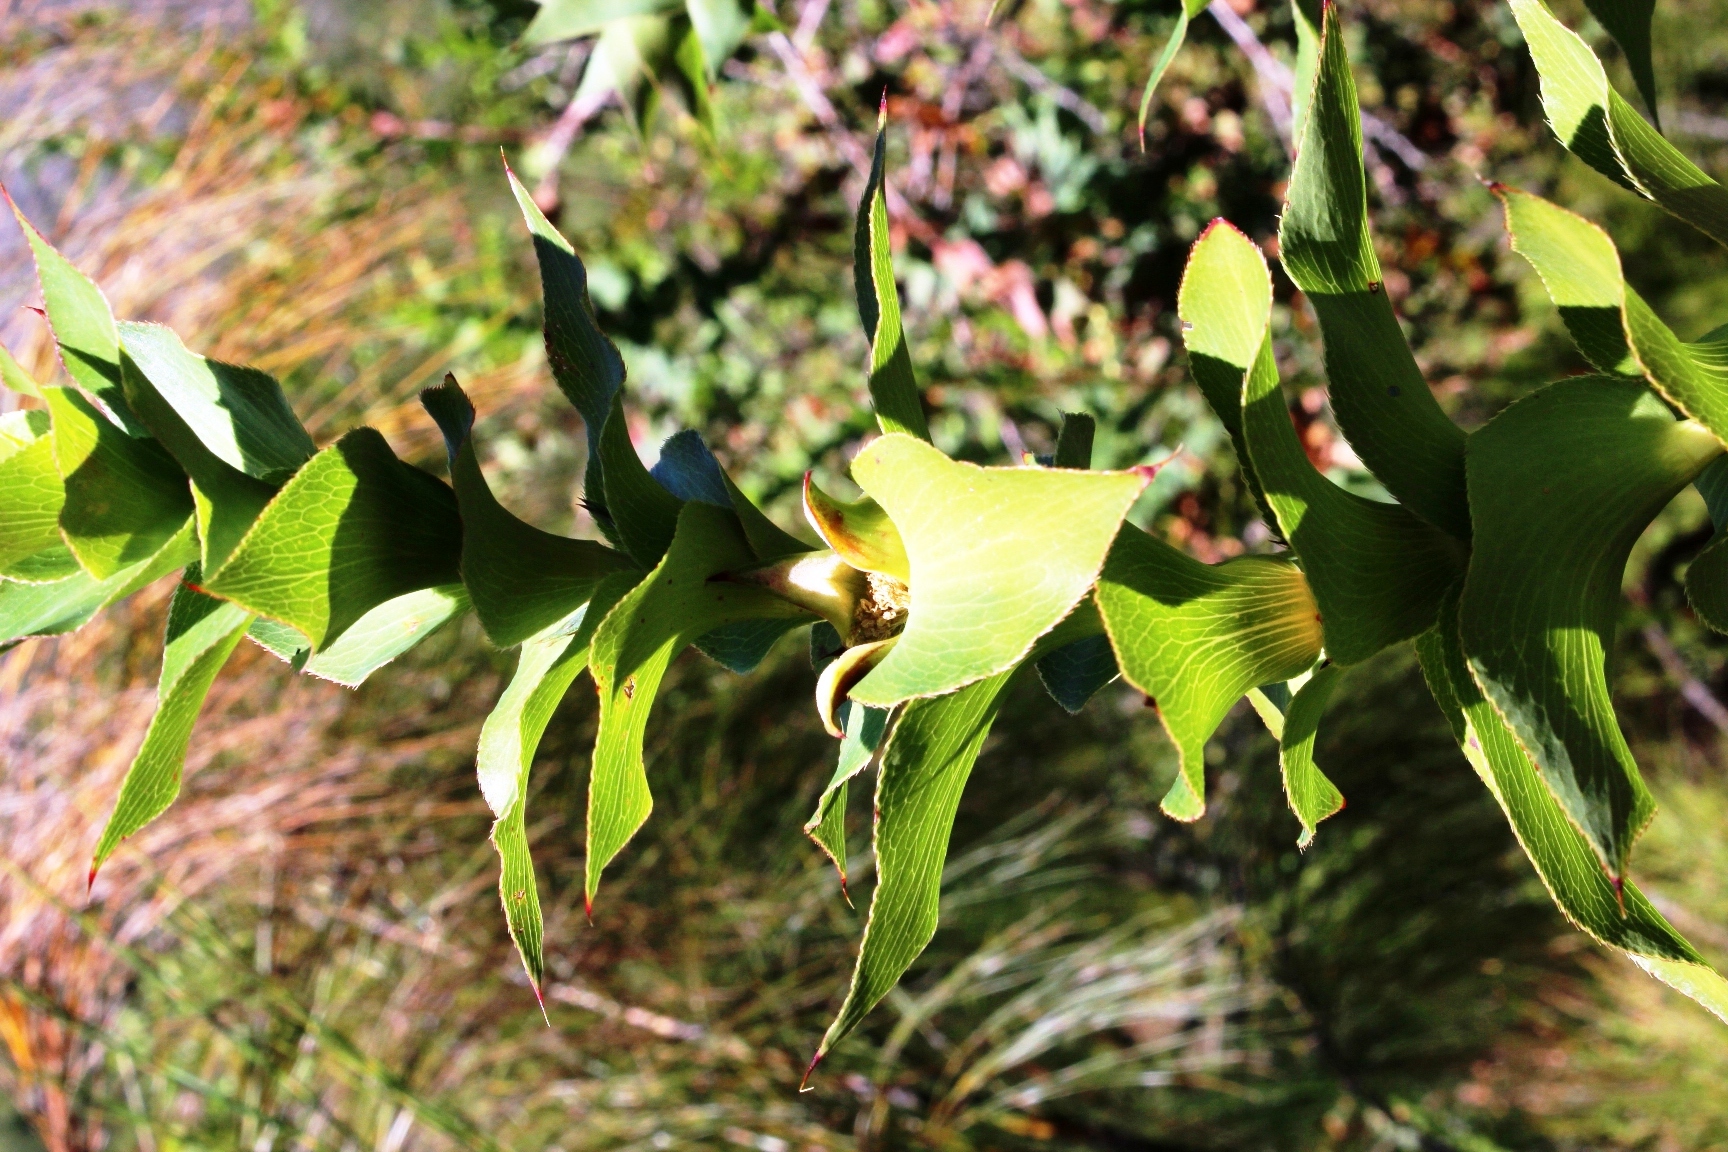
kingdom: Plantae
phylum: Tracheophyta
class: Magnoliopsida
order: Rosales
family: Rosaceae
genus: Cliffortia
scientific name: Cliffortia denticulata
